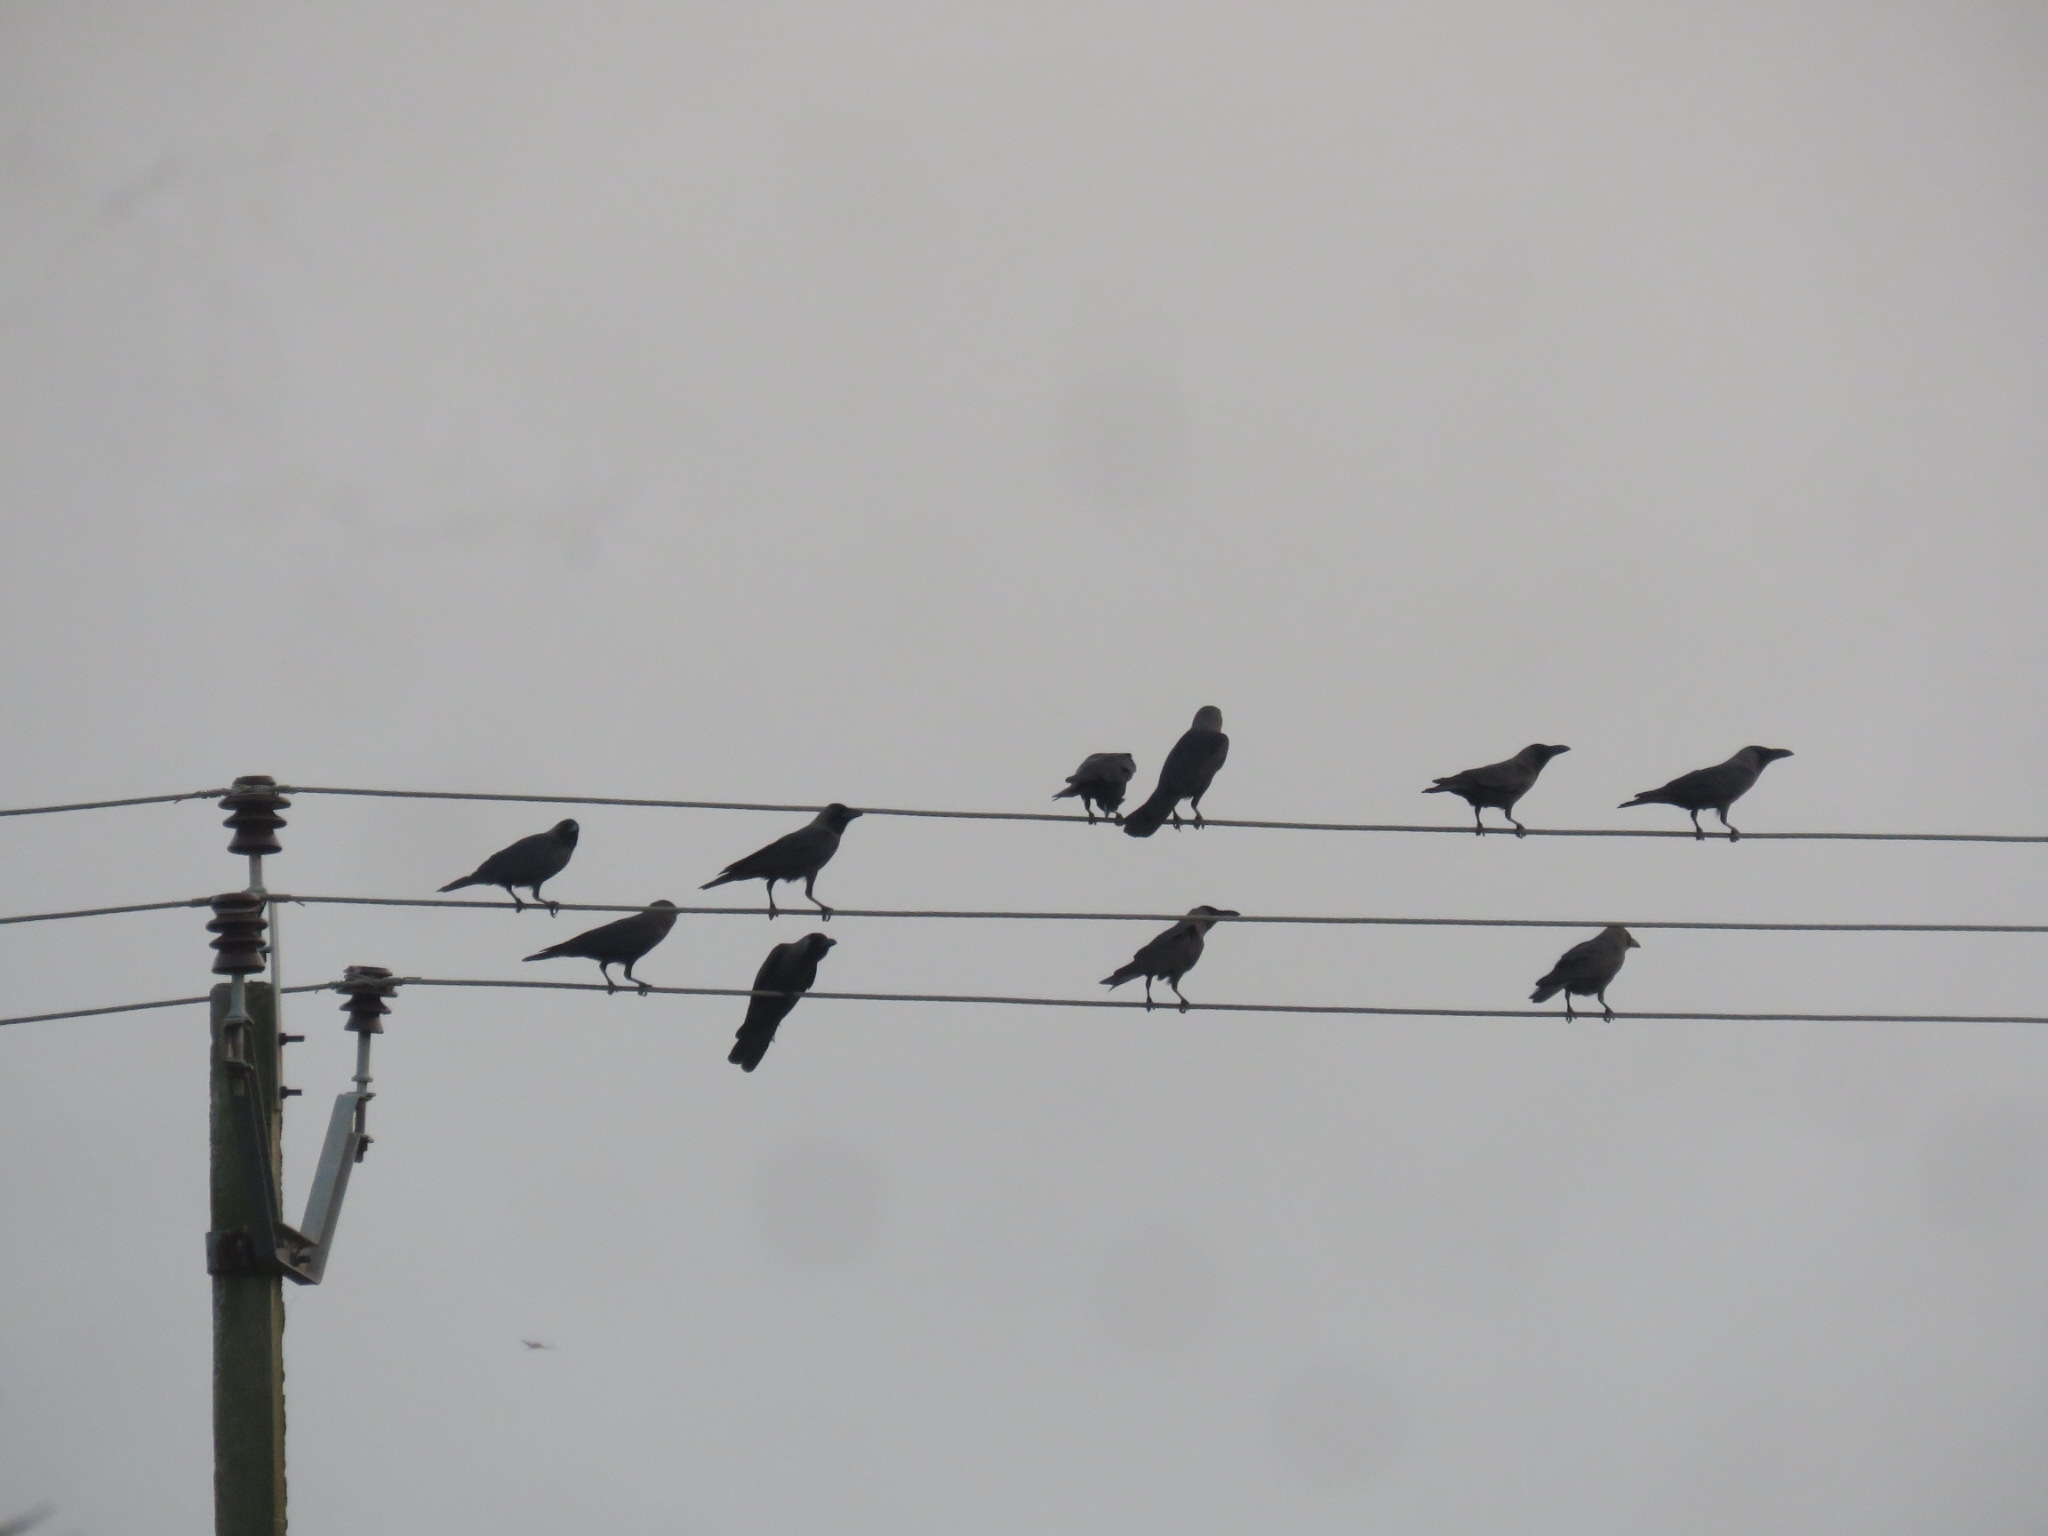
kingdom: Animalia
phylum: Chordata
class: Aves
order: Passeriformes
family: Corvidae
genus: Corvus
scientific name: Corvus splendens
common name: House crow
